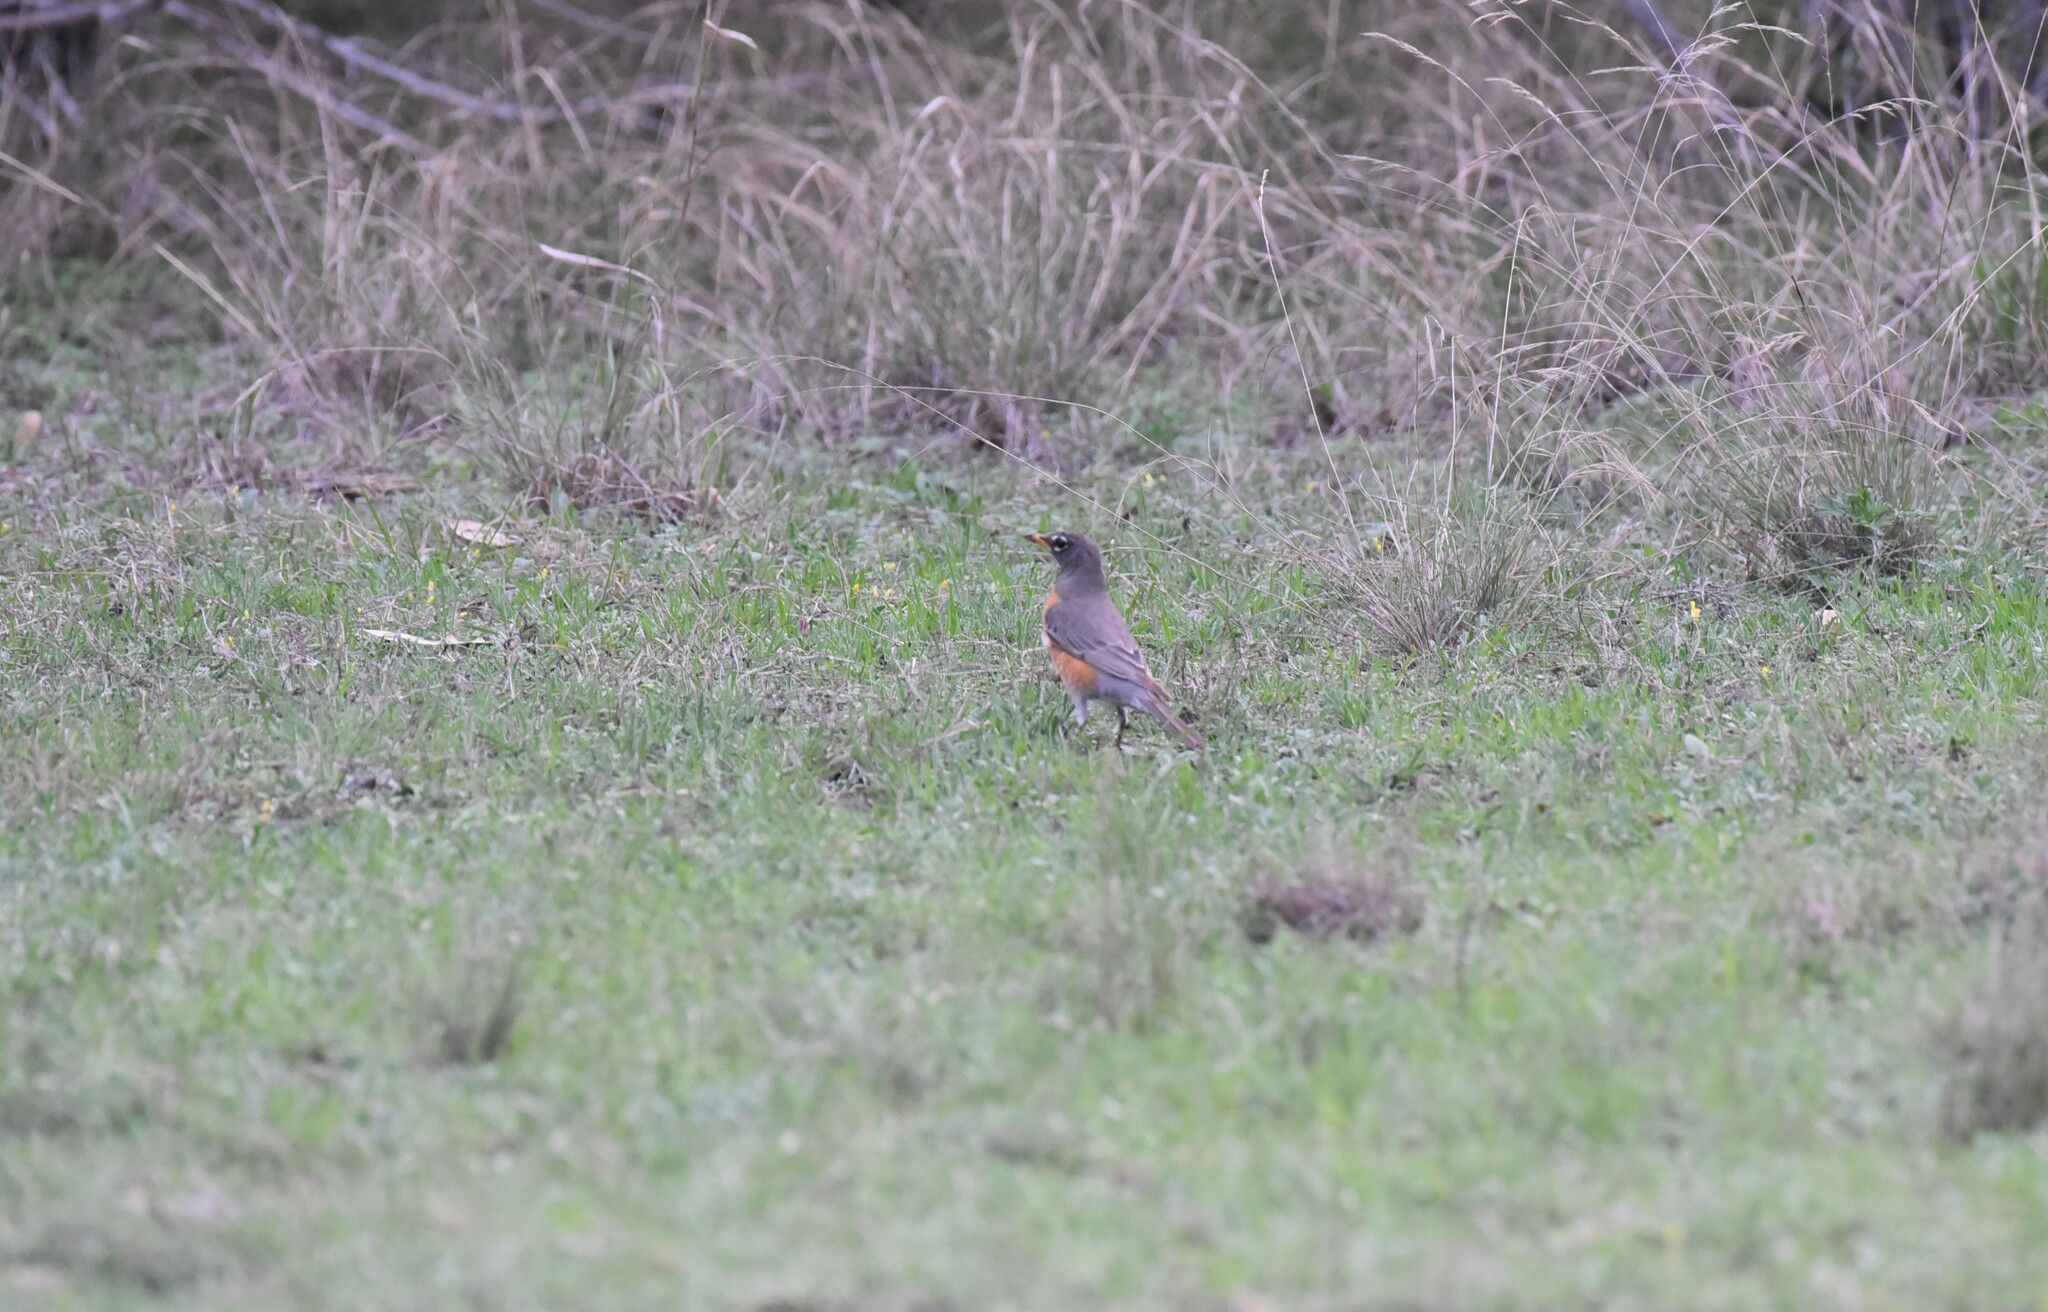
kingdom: Animalia
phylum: Chordata
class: Aves
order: Passeriformes
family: Turdidae
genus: Turdus
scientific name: Turdus migratorius
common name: American robin
